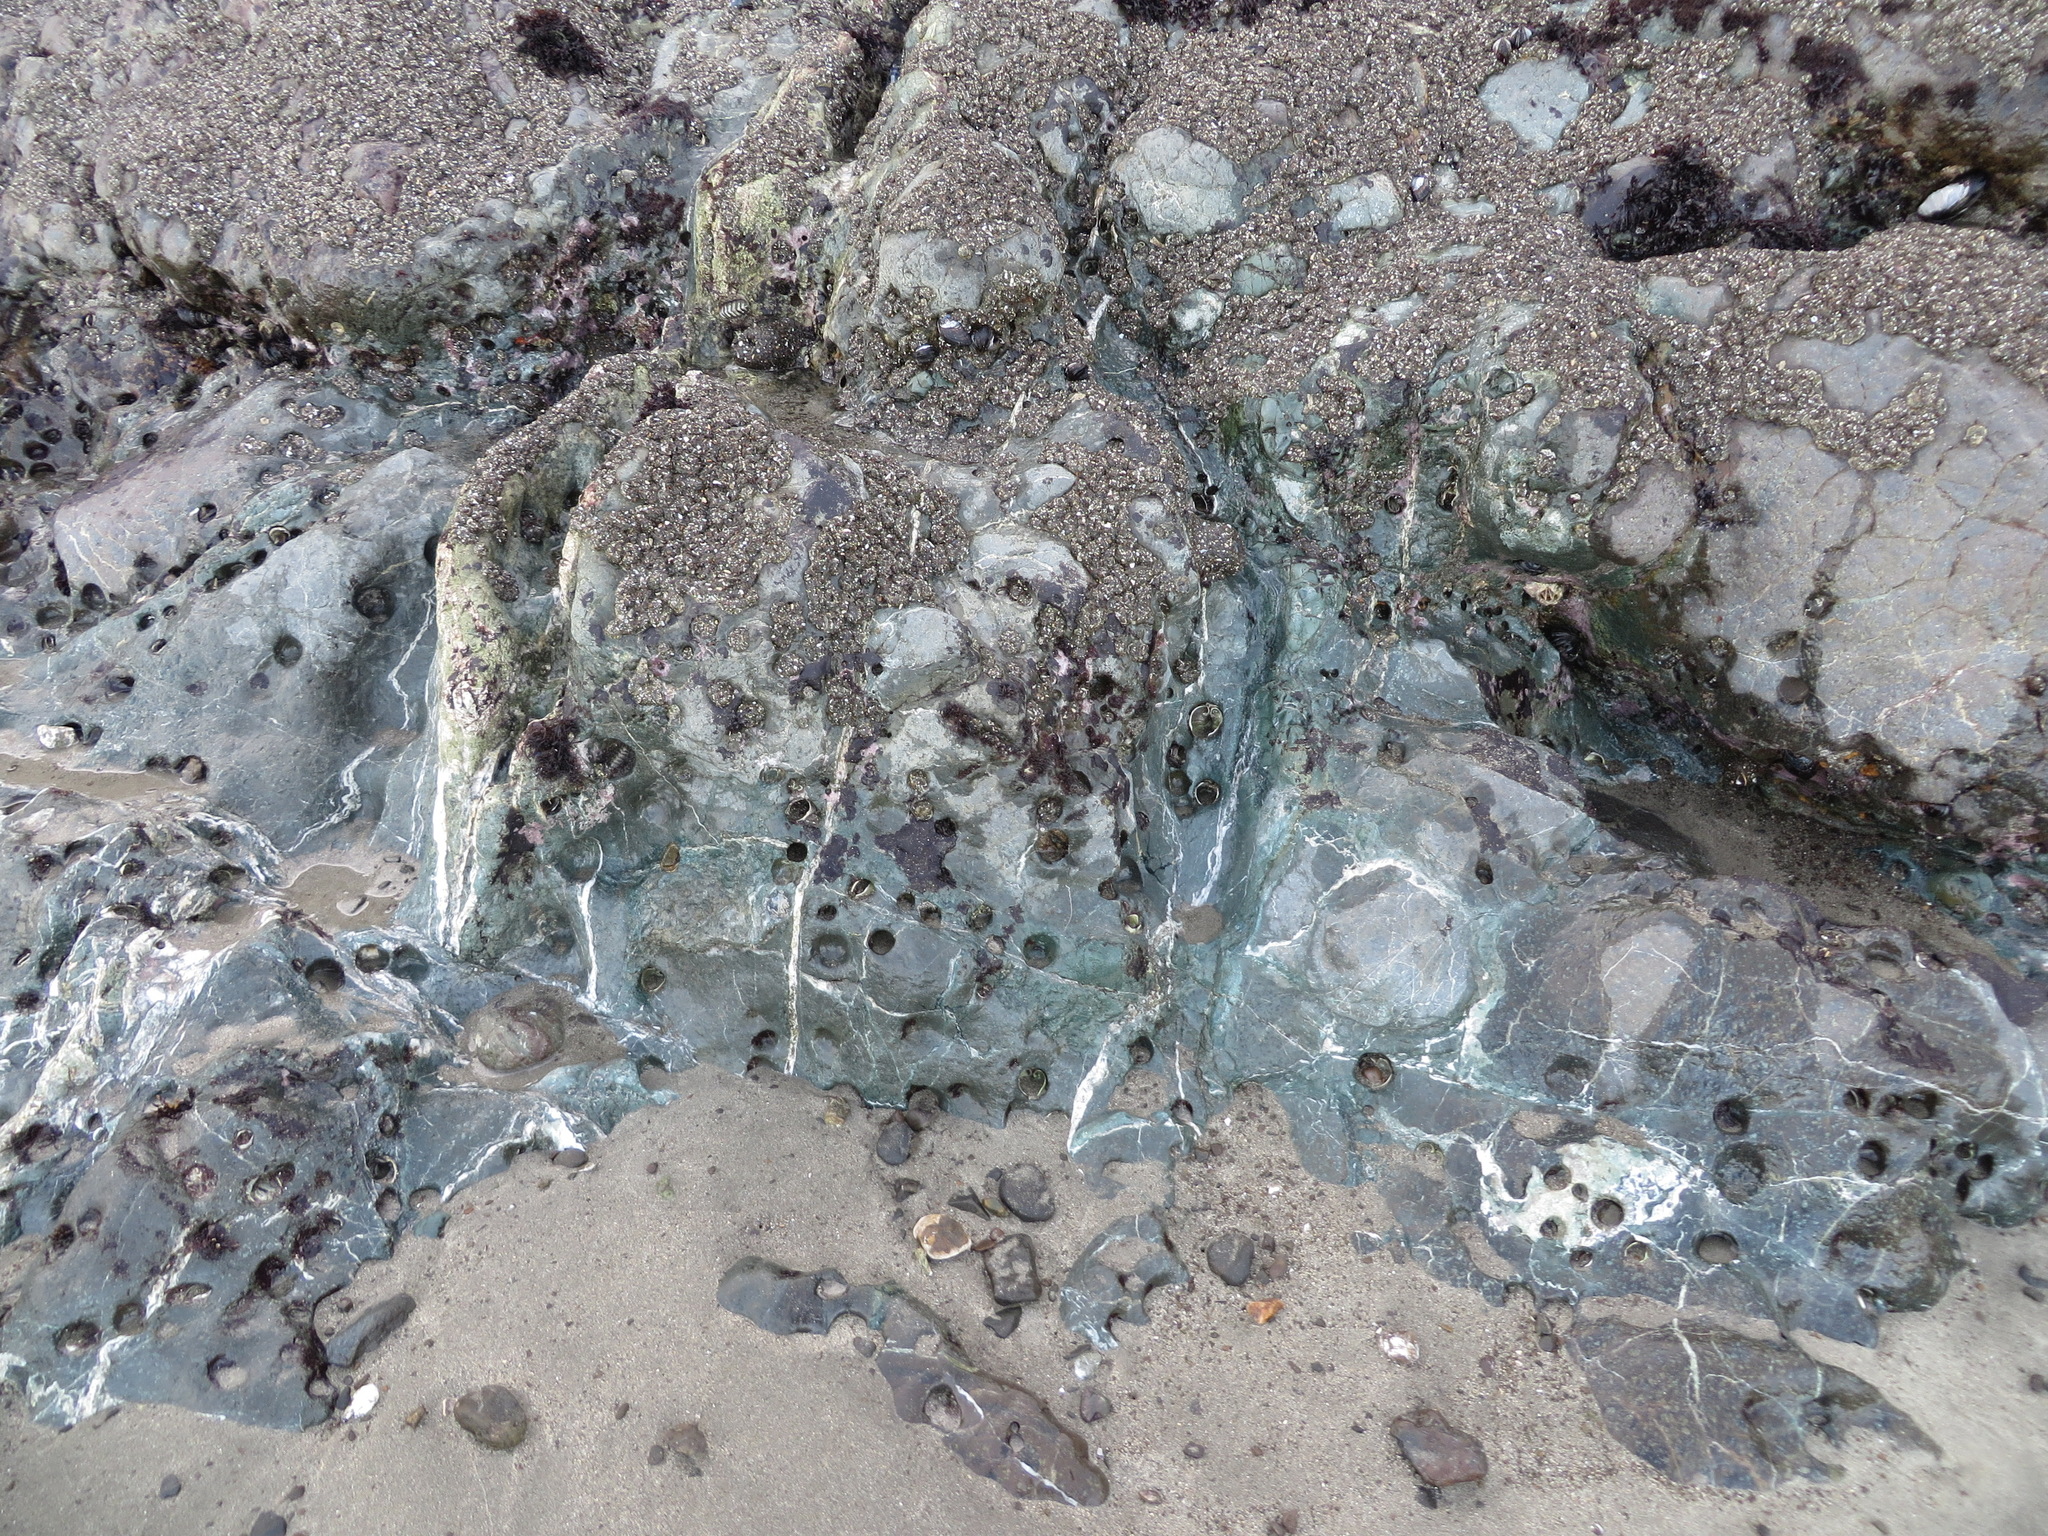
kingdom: Animalia
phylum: Cnidaria
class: Anthozoa
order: Actiniaria
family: Actiniidae
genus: Anthopleura
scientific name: Anthopleura elegantissima
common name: Clonal anemone
